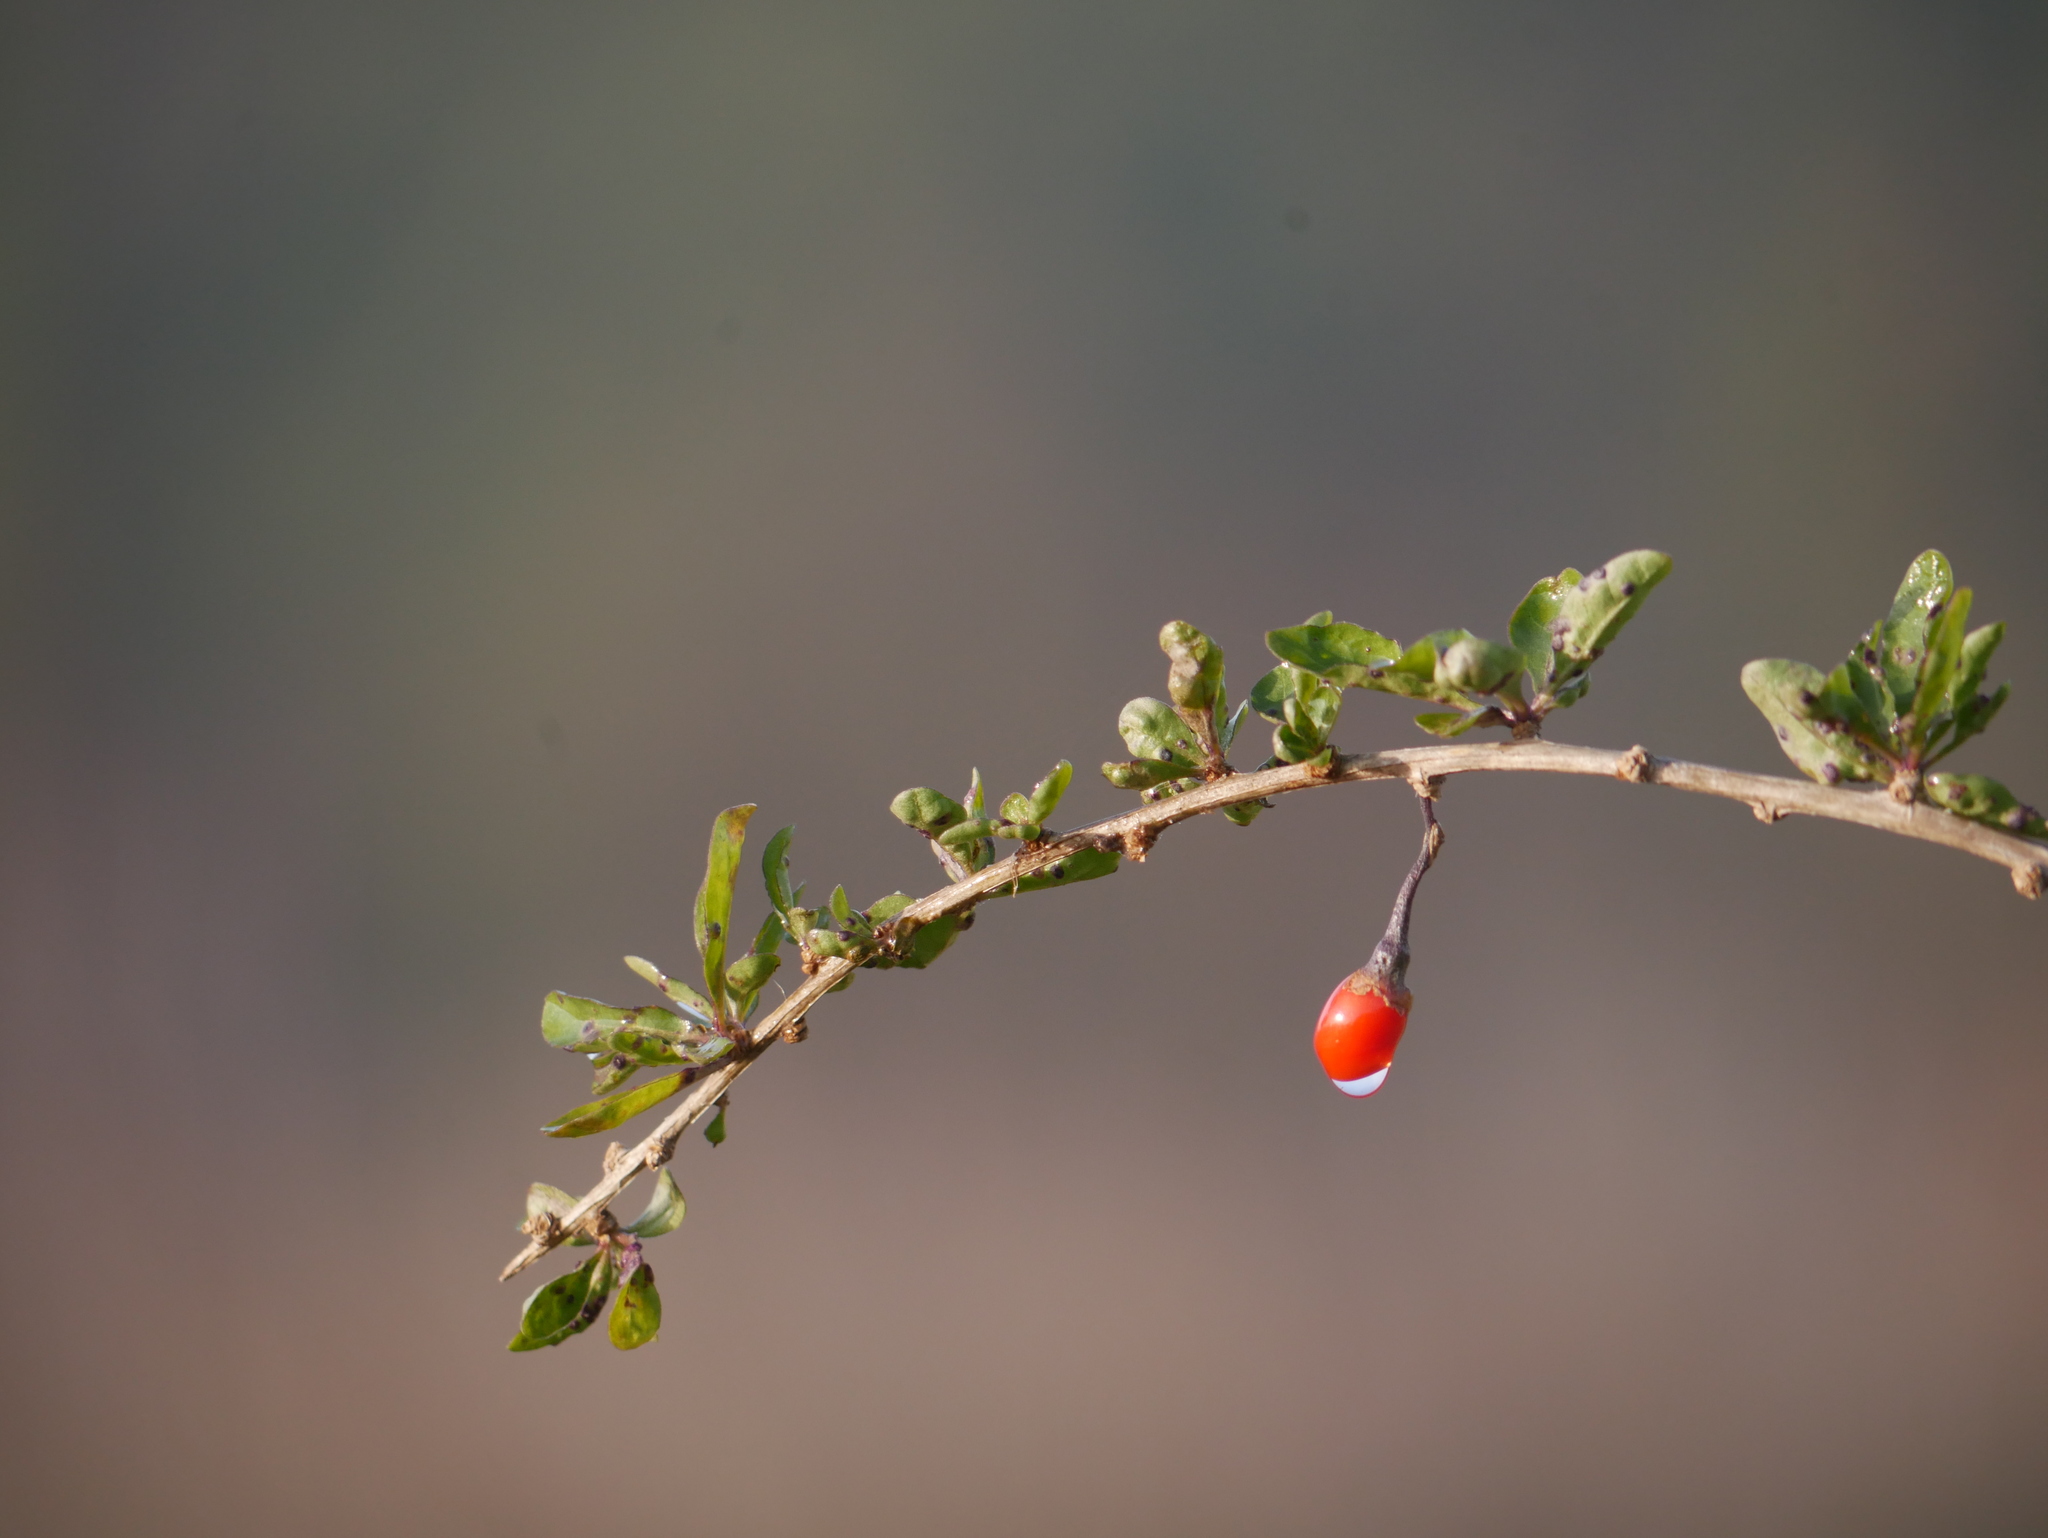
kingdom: Plantae
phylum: Tracheophyta
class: Magnoliopsida
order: Solanales
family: Solanaceae
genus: Lycium
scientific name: Lycium barbarum
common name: Duke of argyll's teaplant
